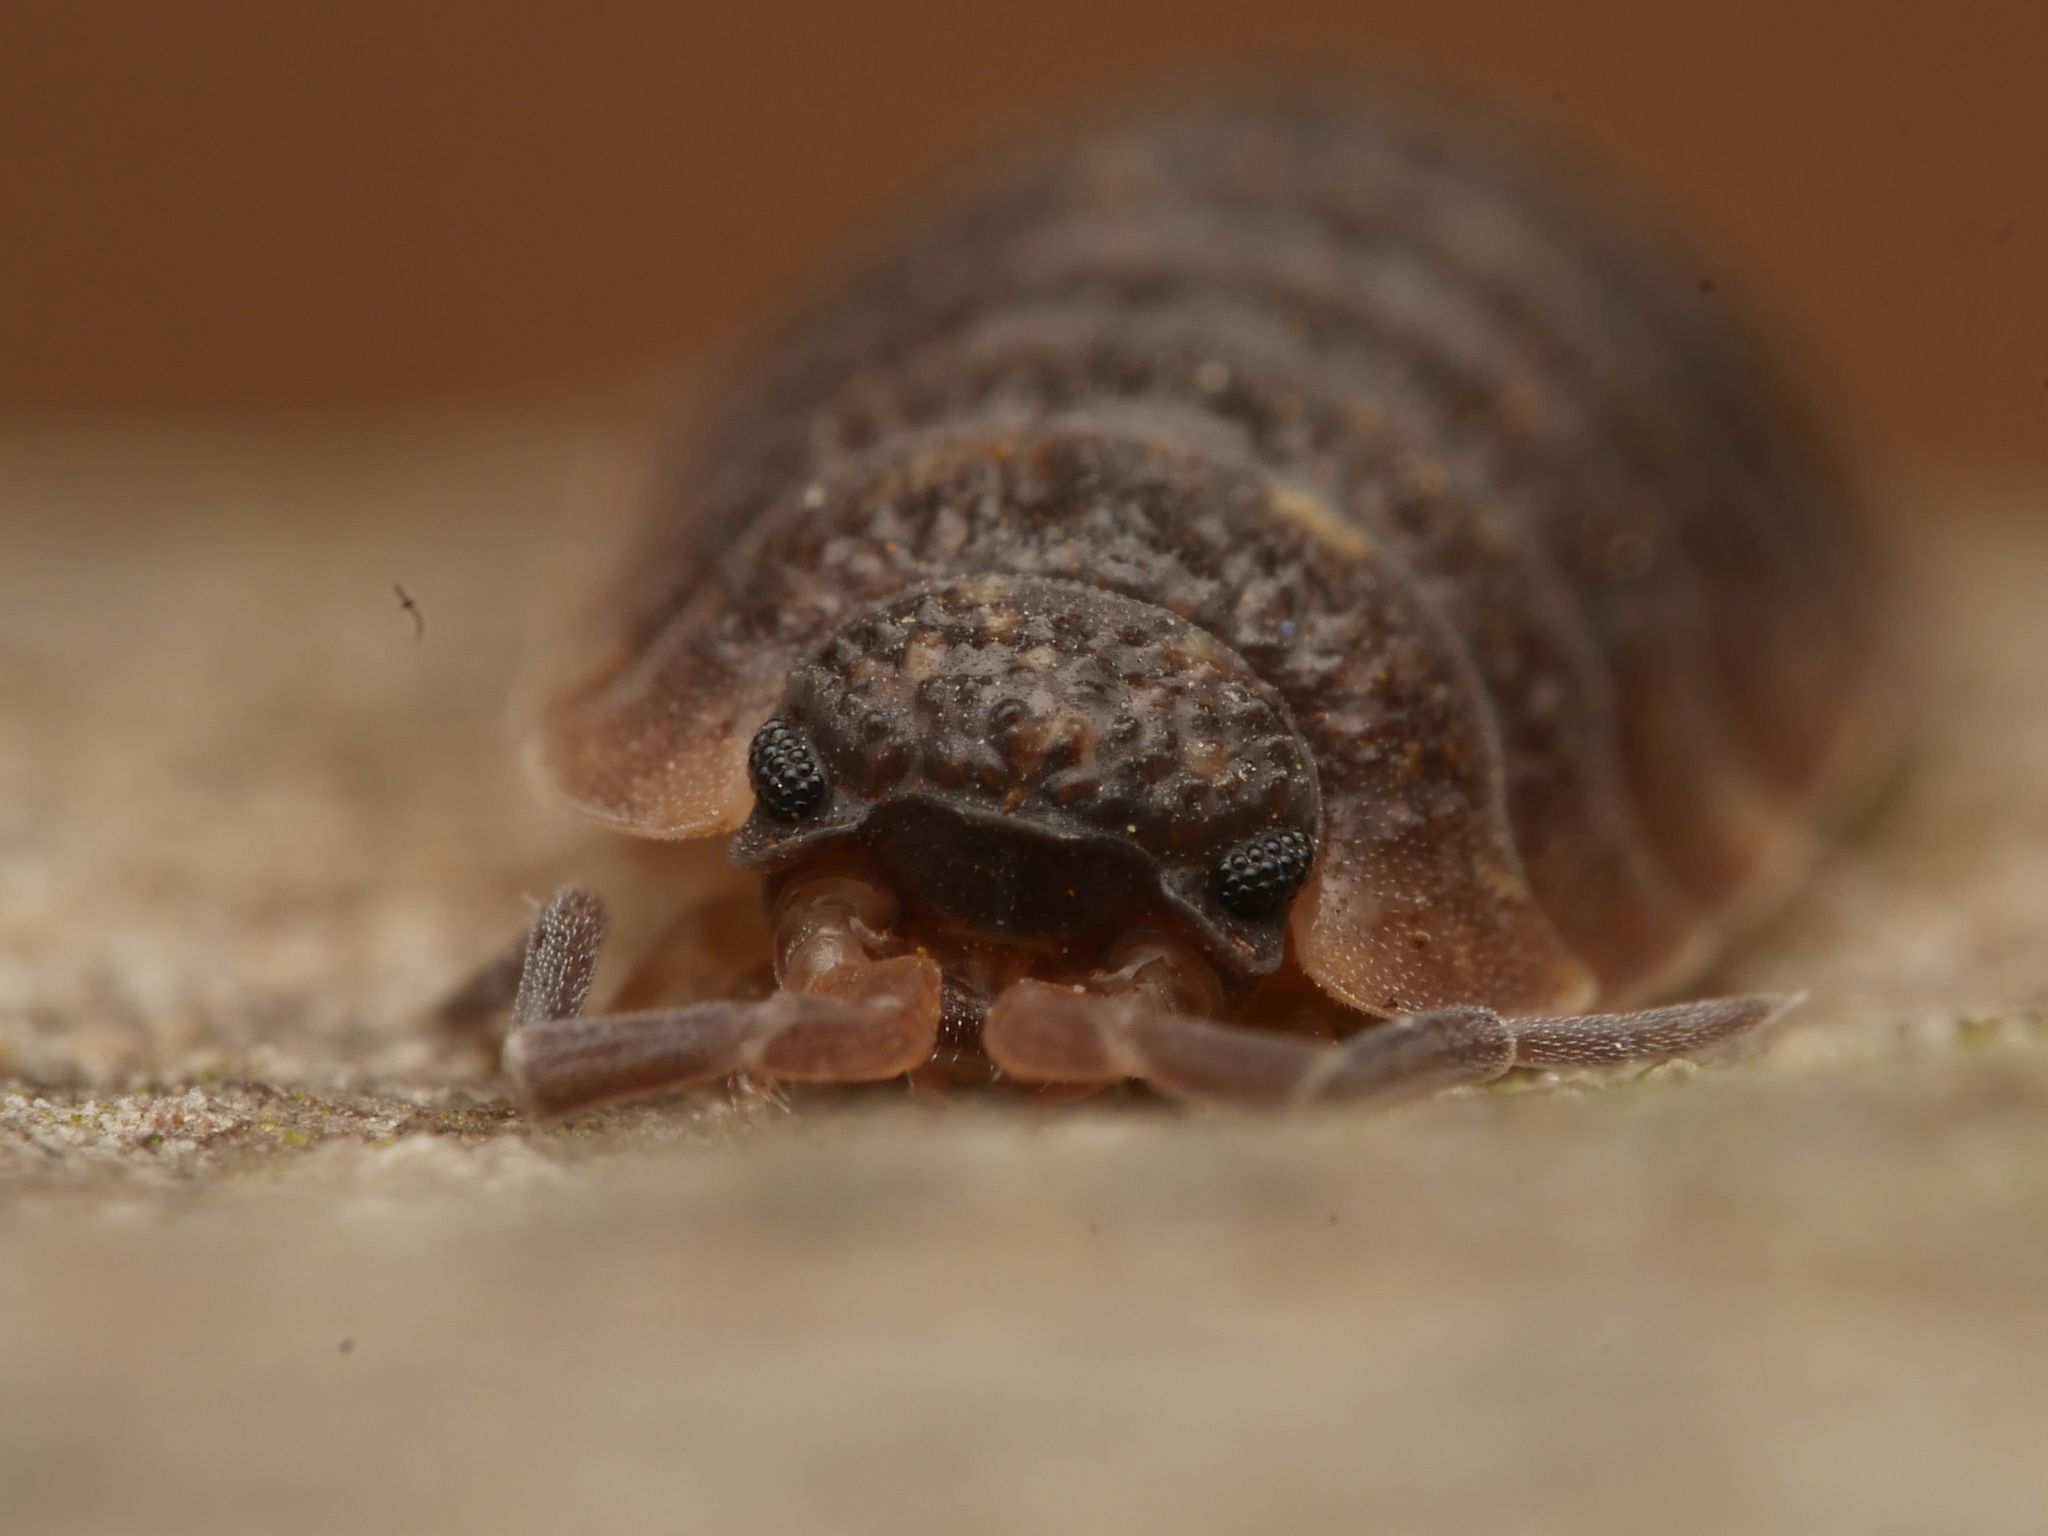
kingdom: Animalia
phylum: Arthropoda
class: Malacostraca
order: Isopoda
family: Porcellionidae
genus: Porcellio
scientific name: Porcellio scaber
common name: Common rough woodlouse
